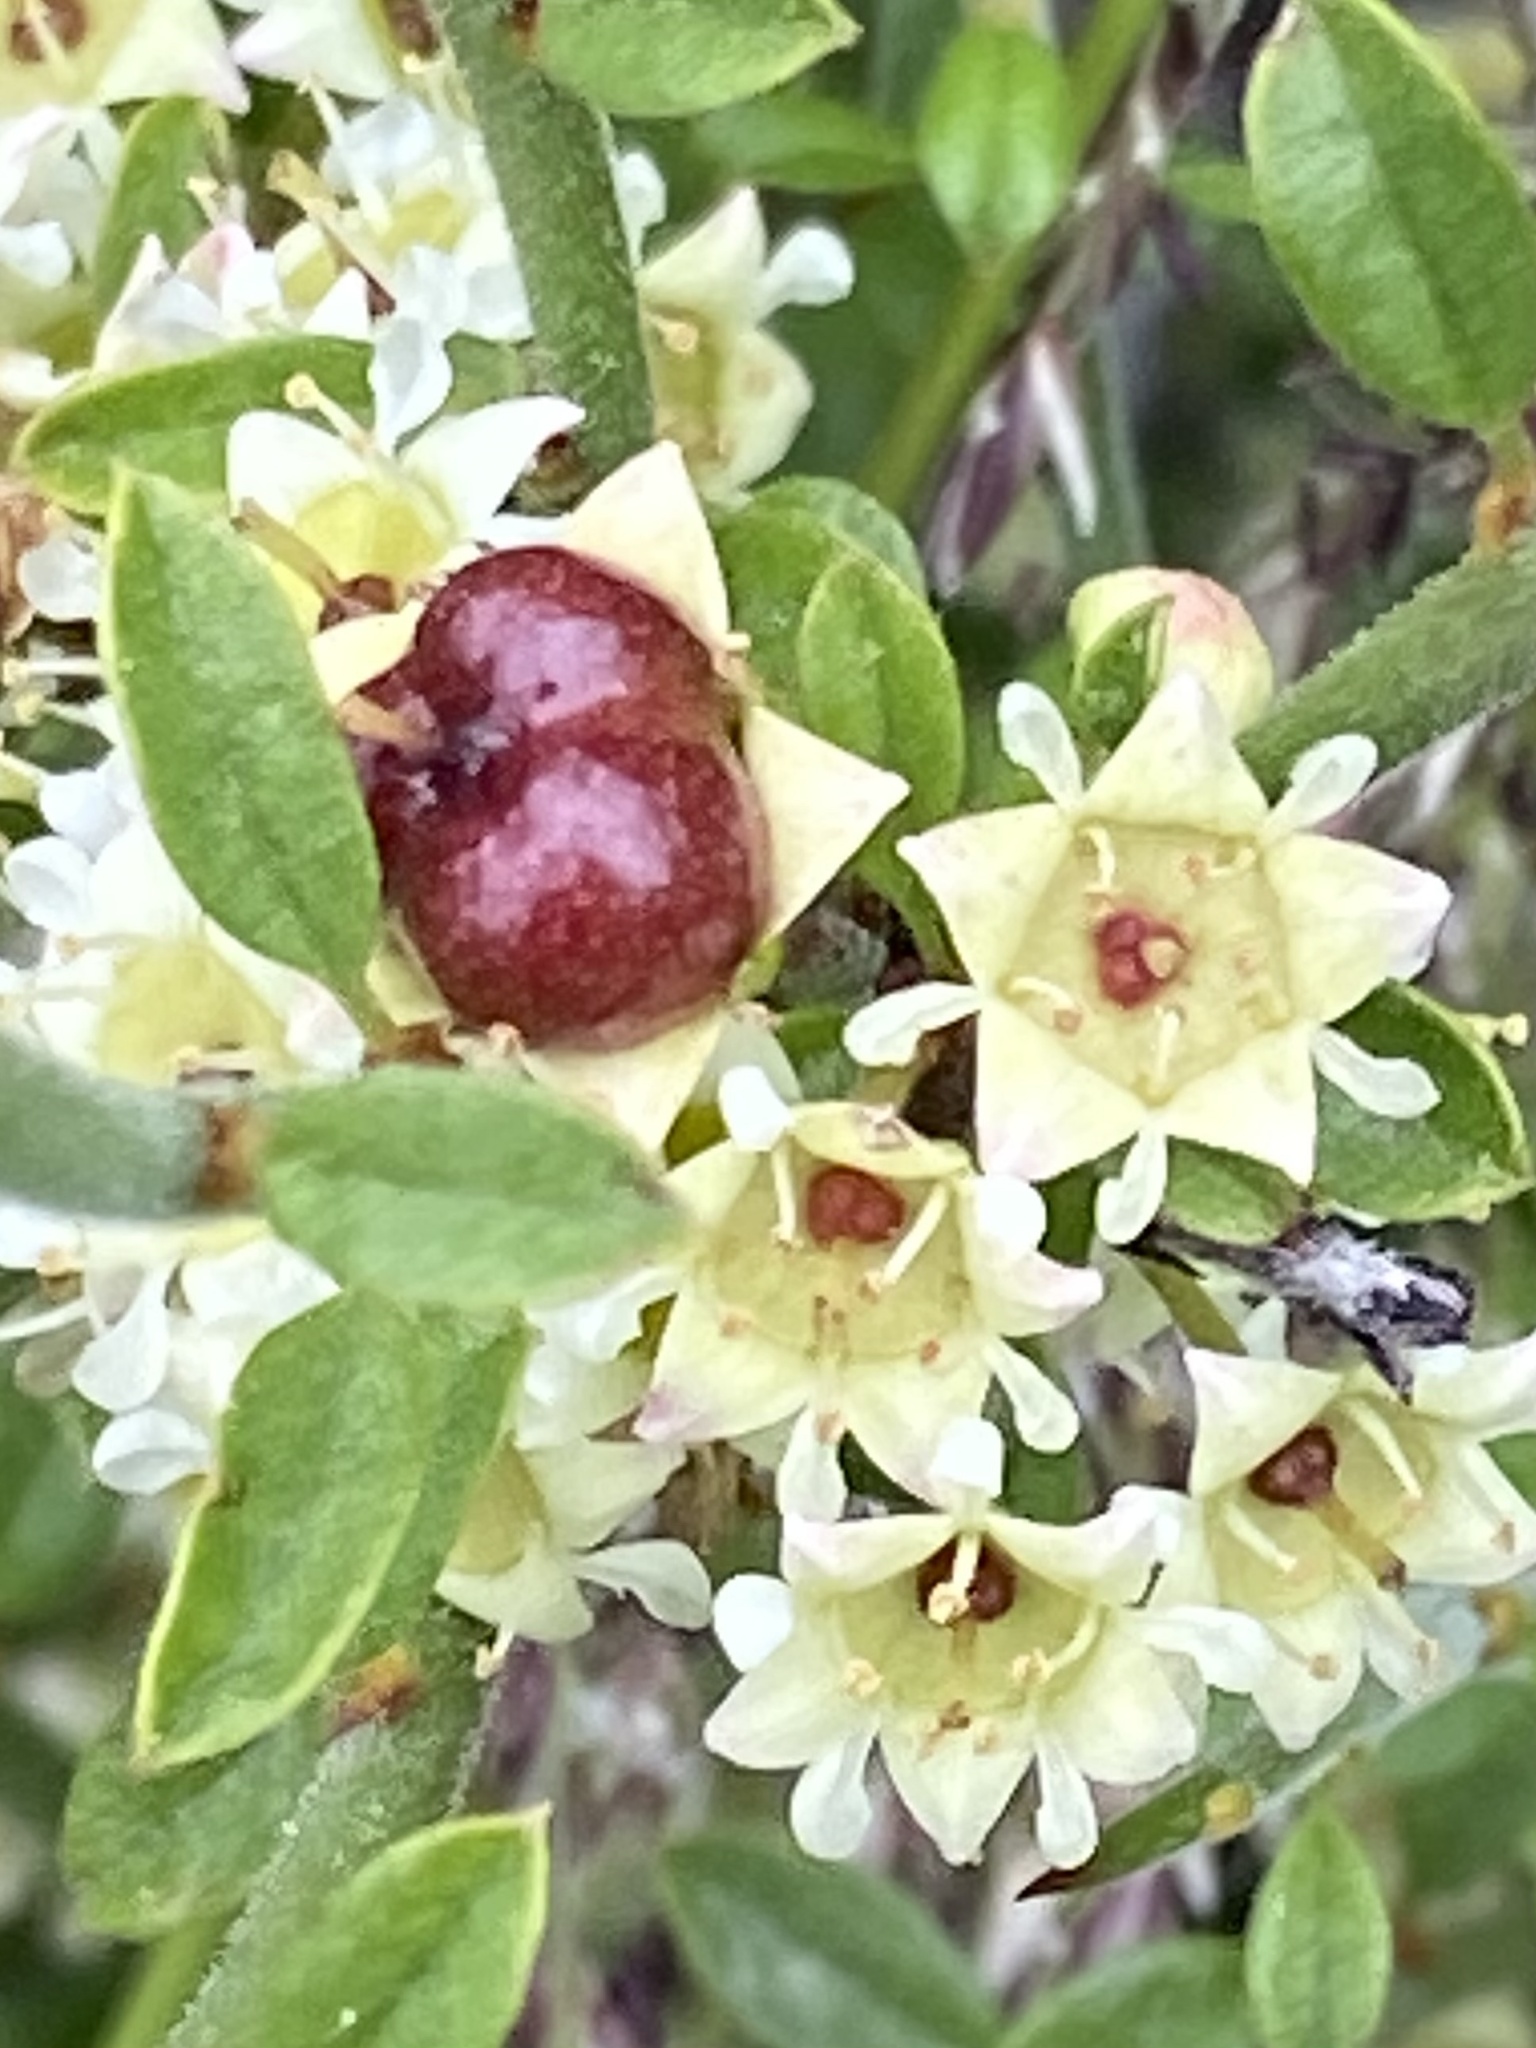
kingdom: Plantae
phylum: Tracheophyta
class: Magnoliopsida
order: Rosales
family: Rhamnaceae
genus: Adolphia
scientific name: Adolphia californica
